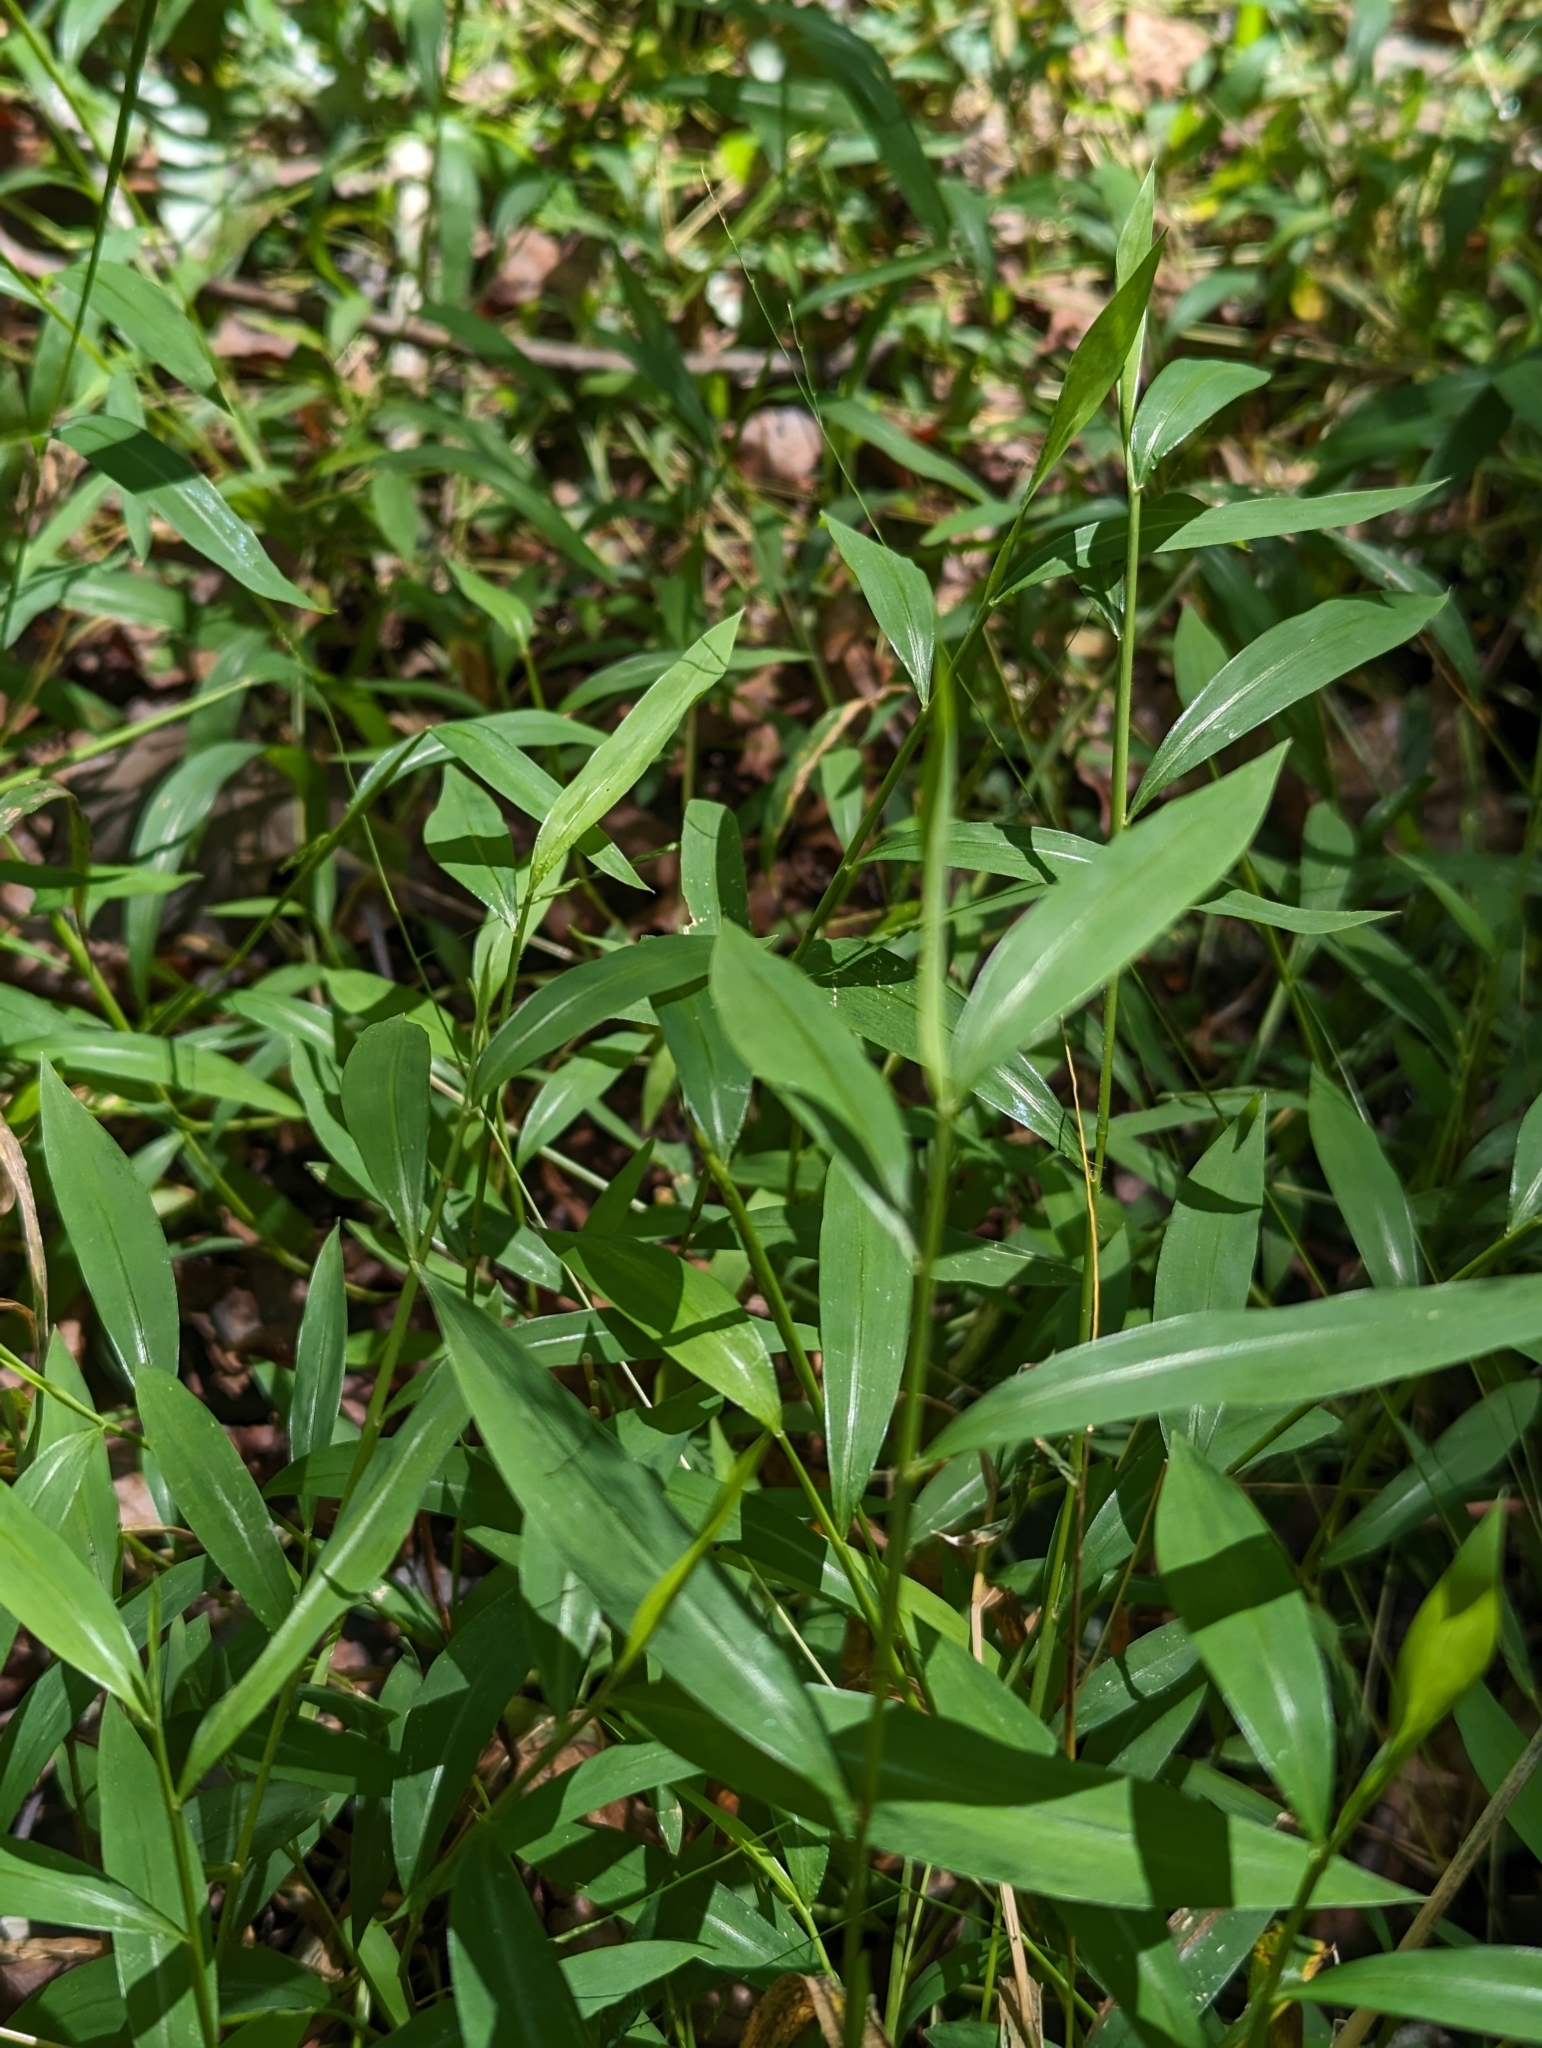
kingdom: Plantae
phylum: Tracheophyta
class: Liliopsida
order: Poales
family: Poaceae
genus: Microstegium
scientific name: Microstegium vimineum
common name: Japanese stiltgrass
